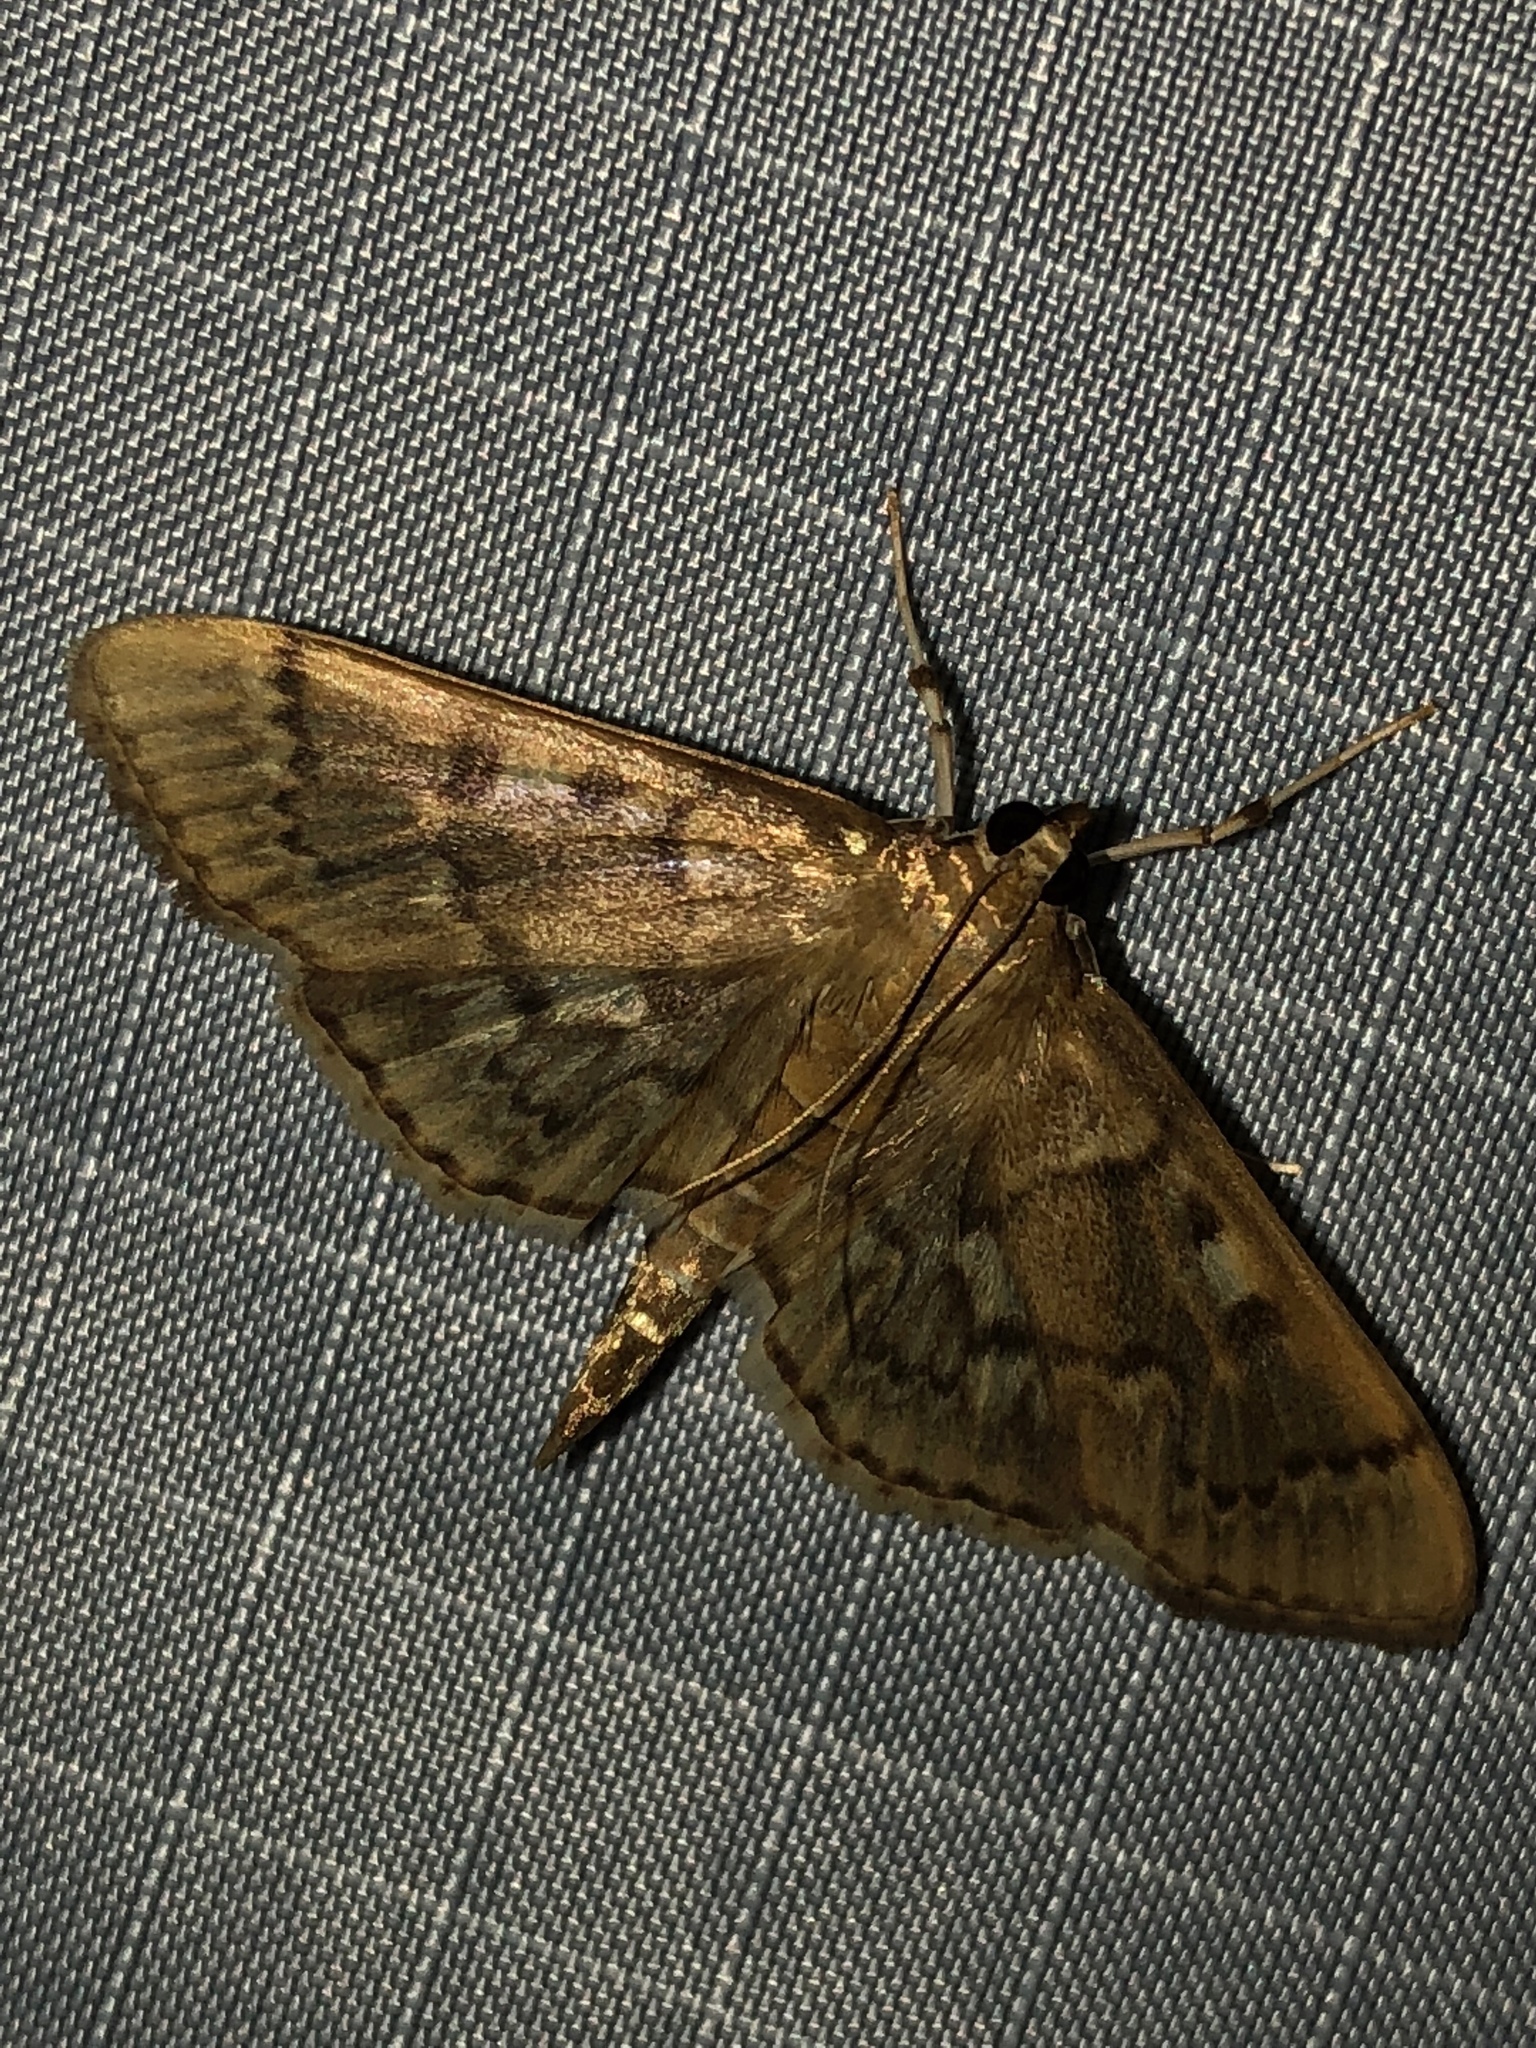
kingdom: Animalia
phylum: Arthropoda
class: Insecta
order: Lepidoptera
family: Crambidae
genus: Herpetogramma
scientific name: Herpetogramma aeglealis
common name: Serpentine webworm moth
